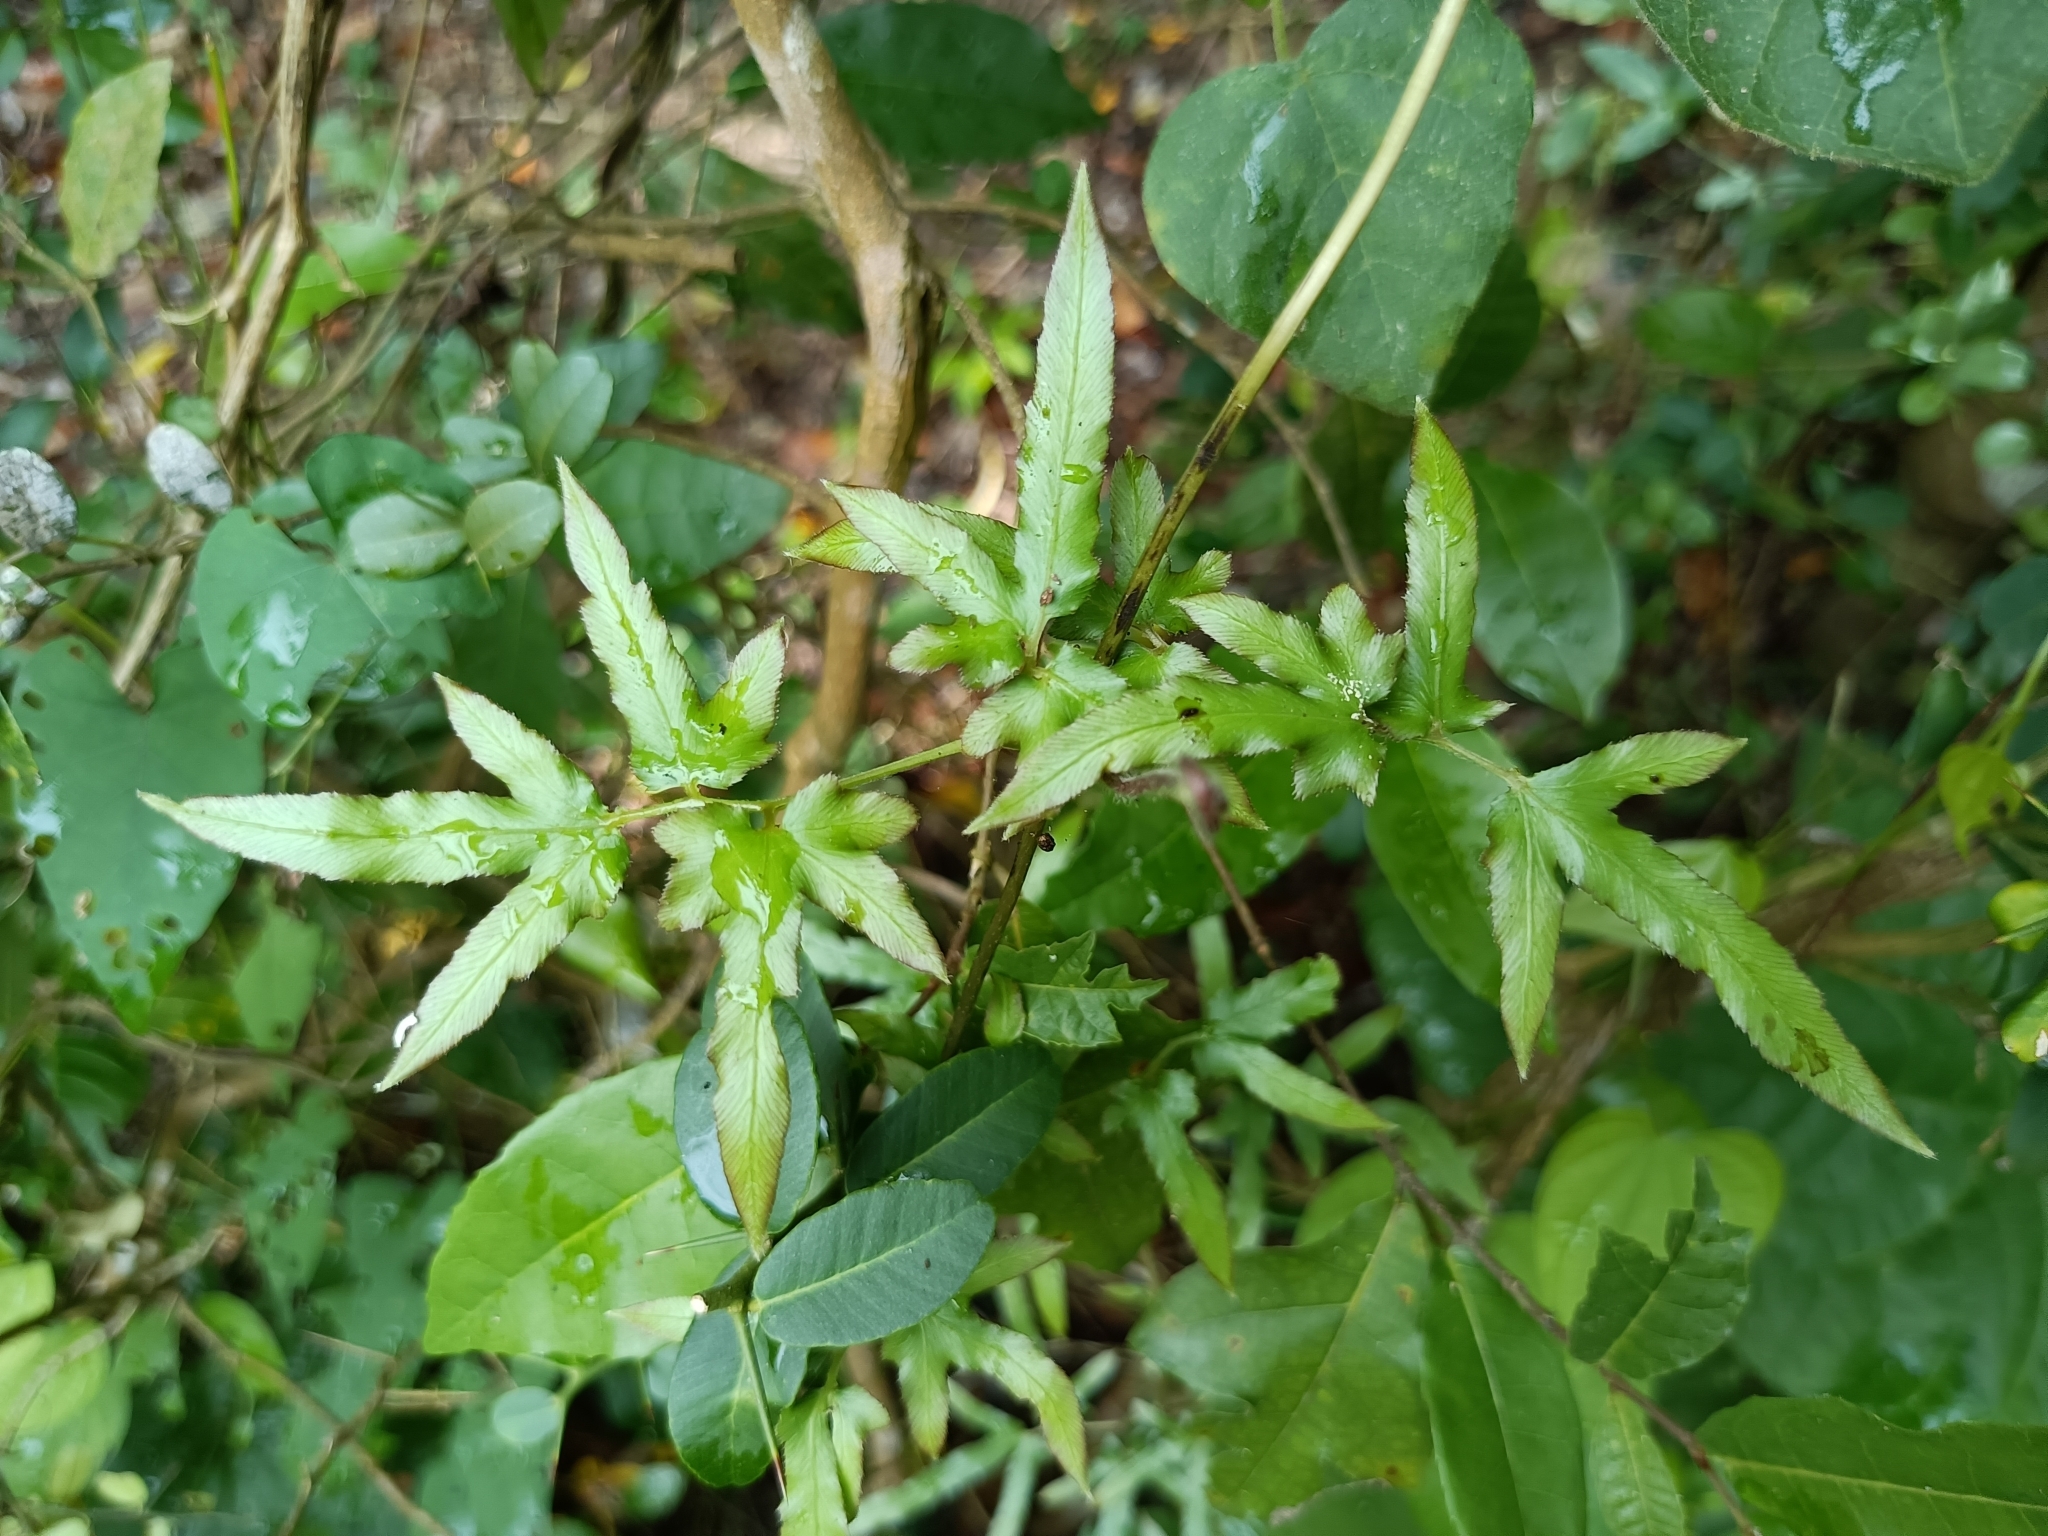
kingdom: Plantae
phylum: Tracheophyta
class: Polypodiopsida
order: Schizaeales
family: Lygodiaceae
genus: Lygodium
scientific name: Lygodium japonicum
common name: Japanese climbing fern
